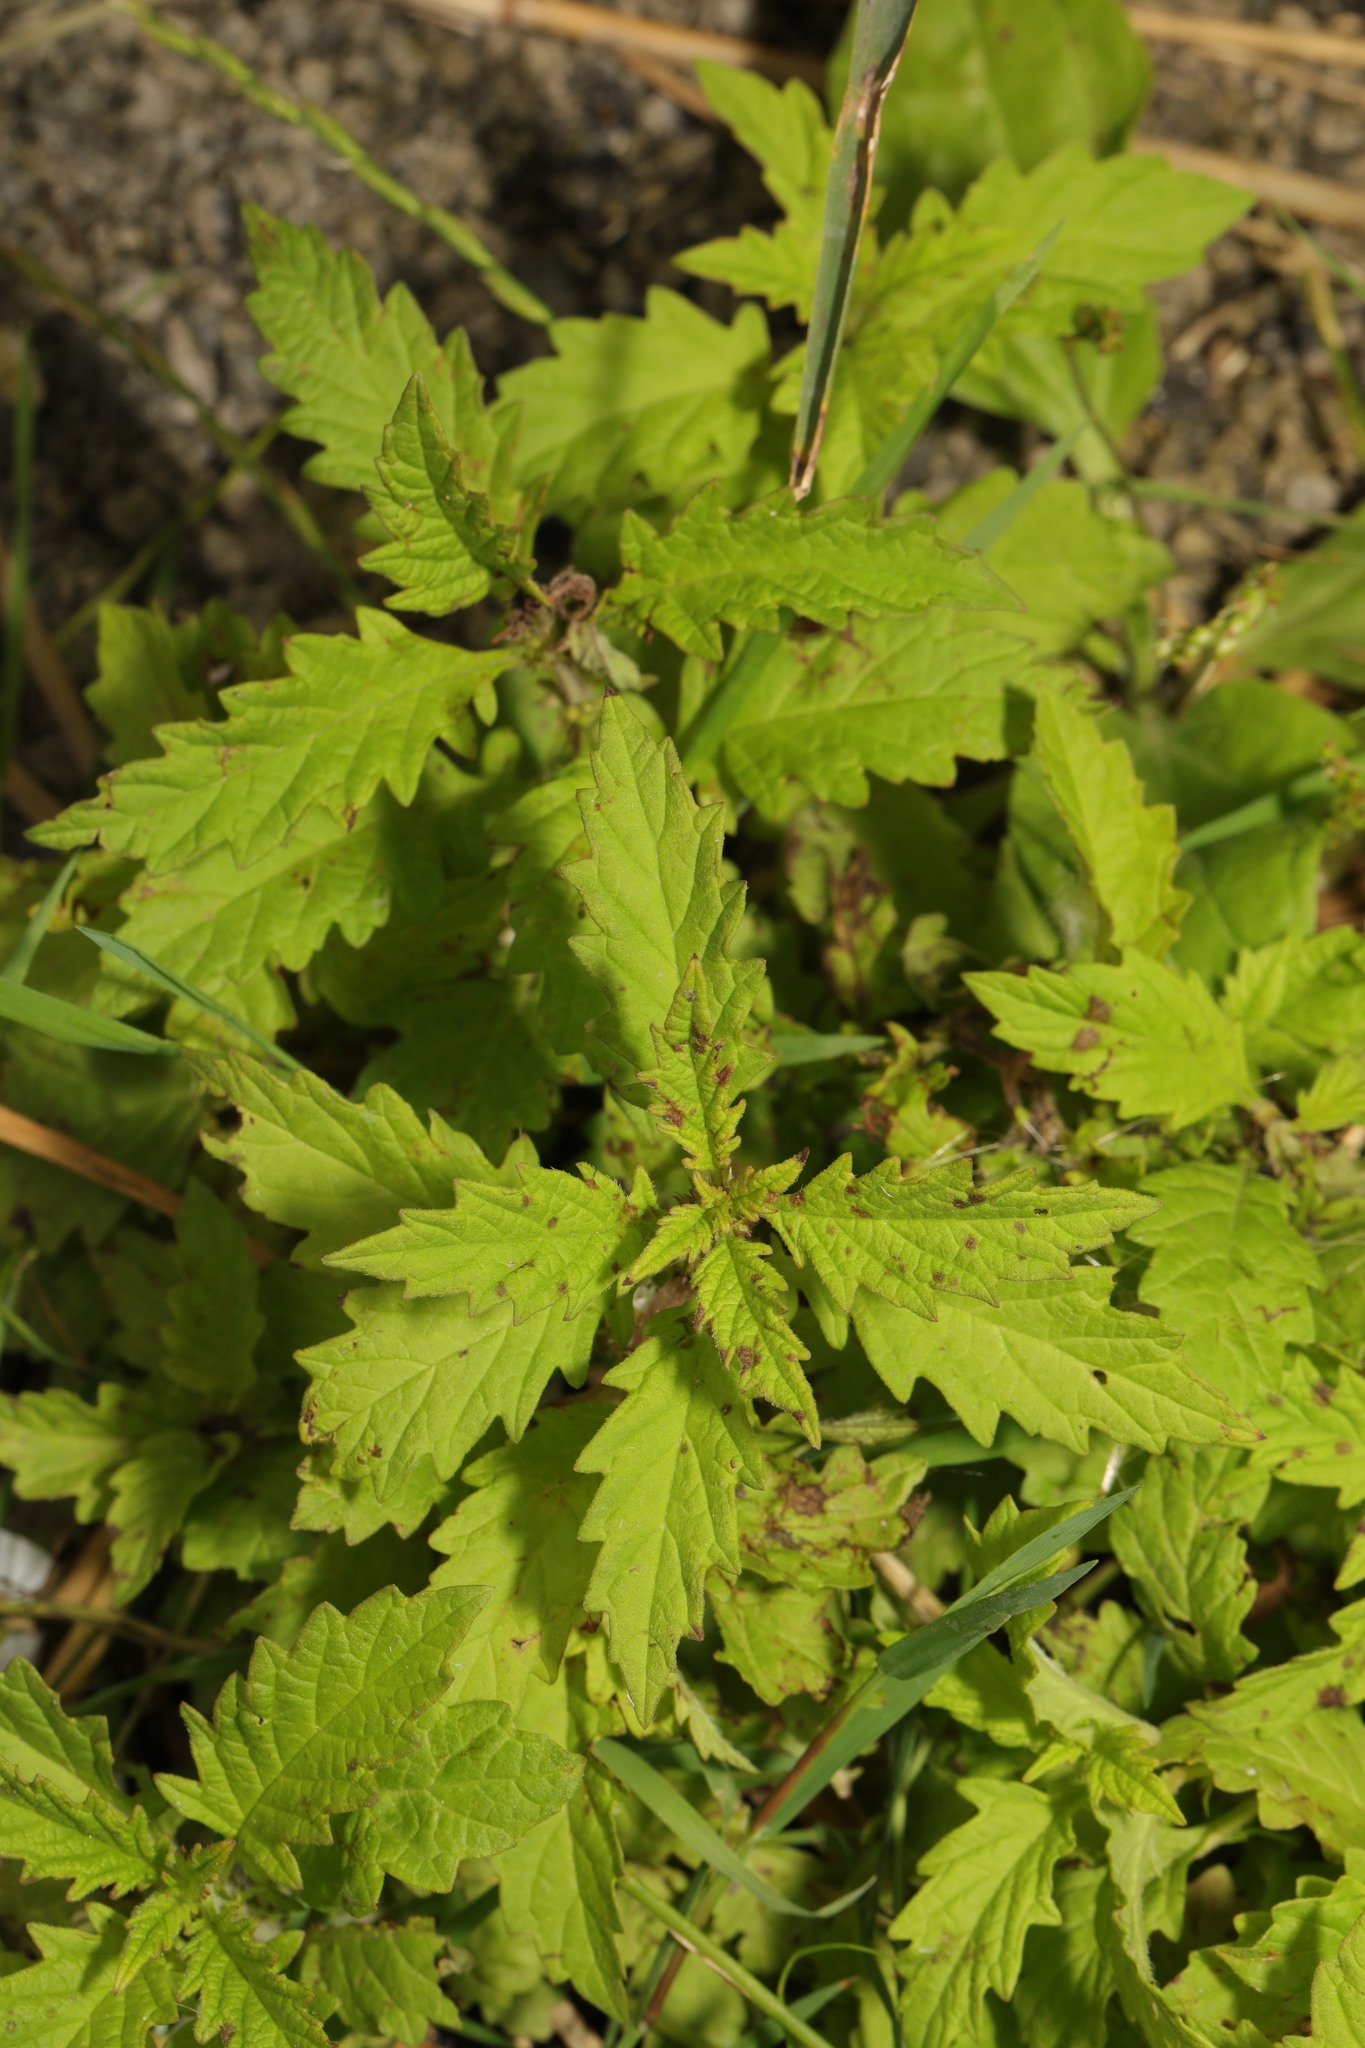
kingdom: Plantae
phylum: Tracheophyta
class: Magnoliopsida
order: Lamiales
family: Lamiaceae
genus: Lycopus
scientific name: Lycopus europaeus
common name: European bugleweed
